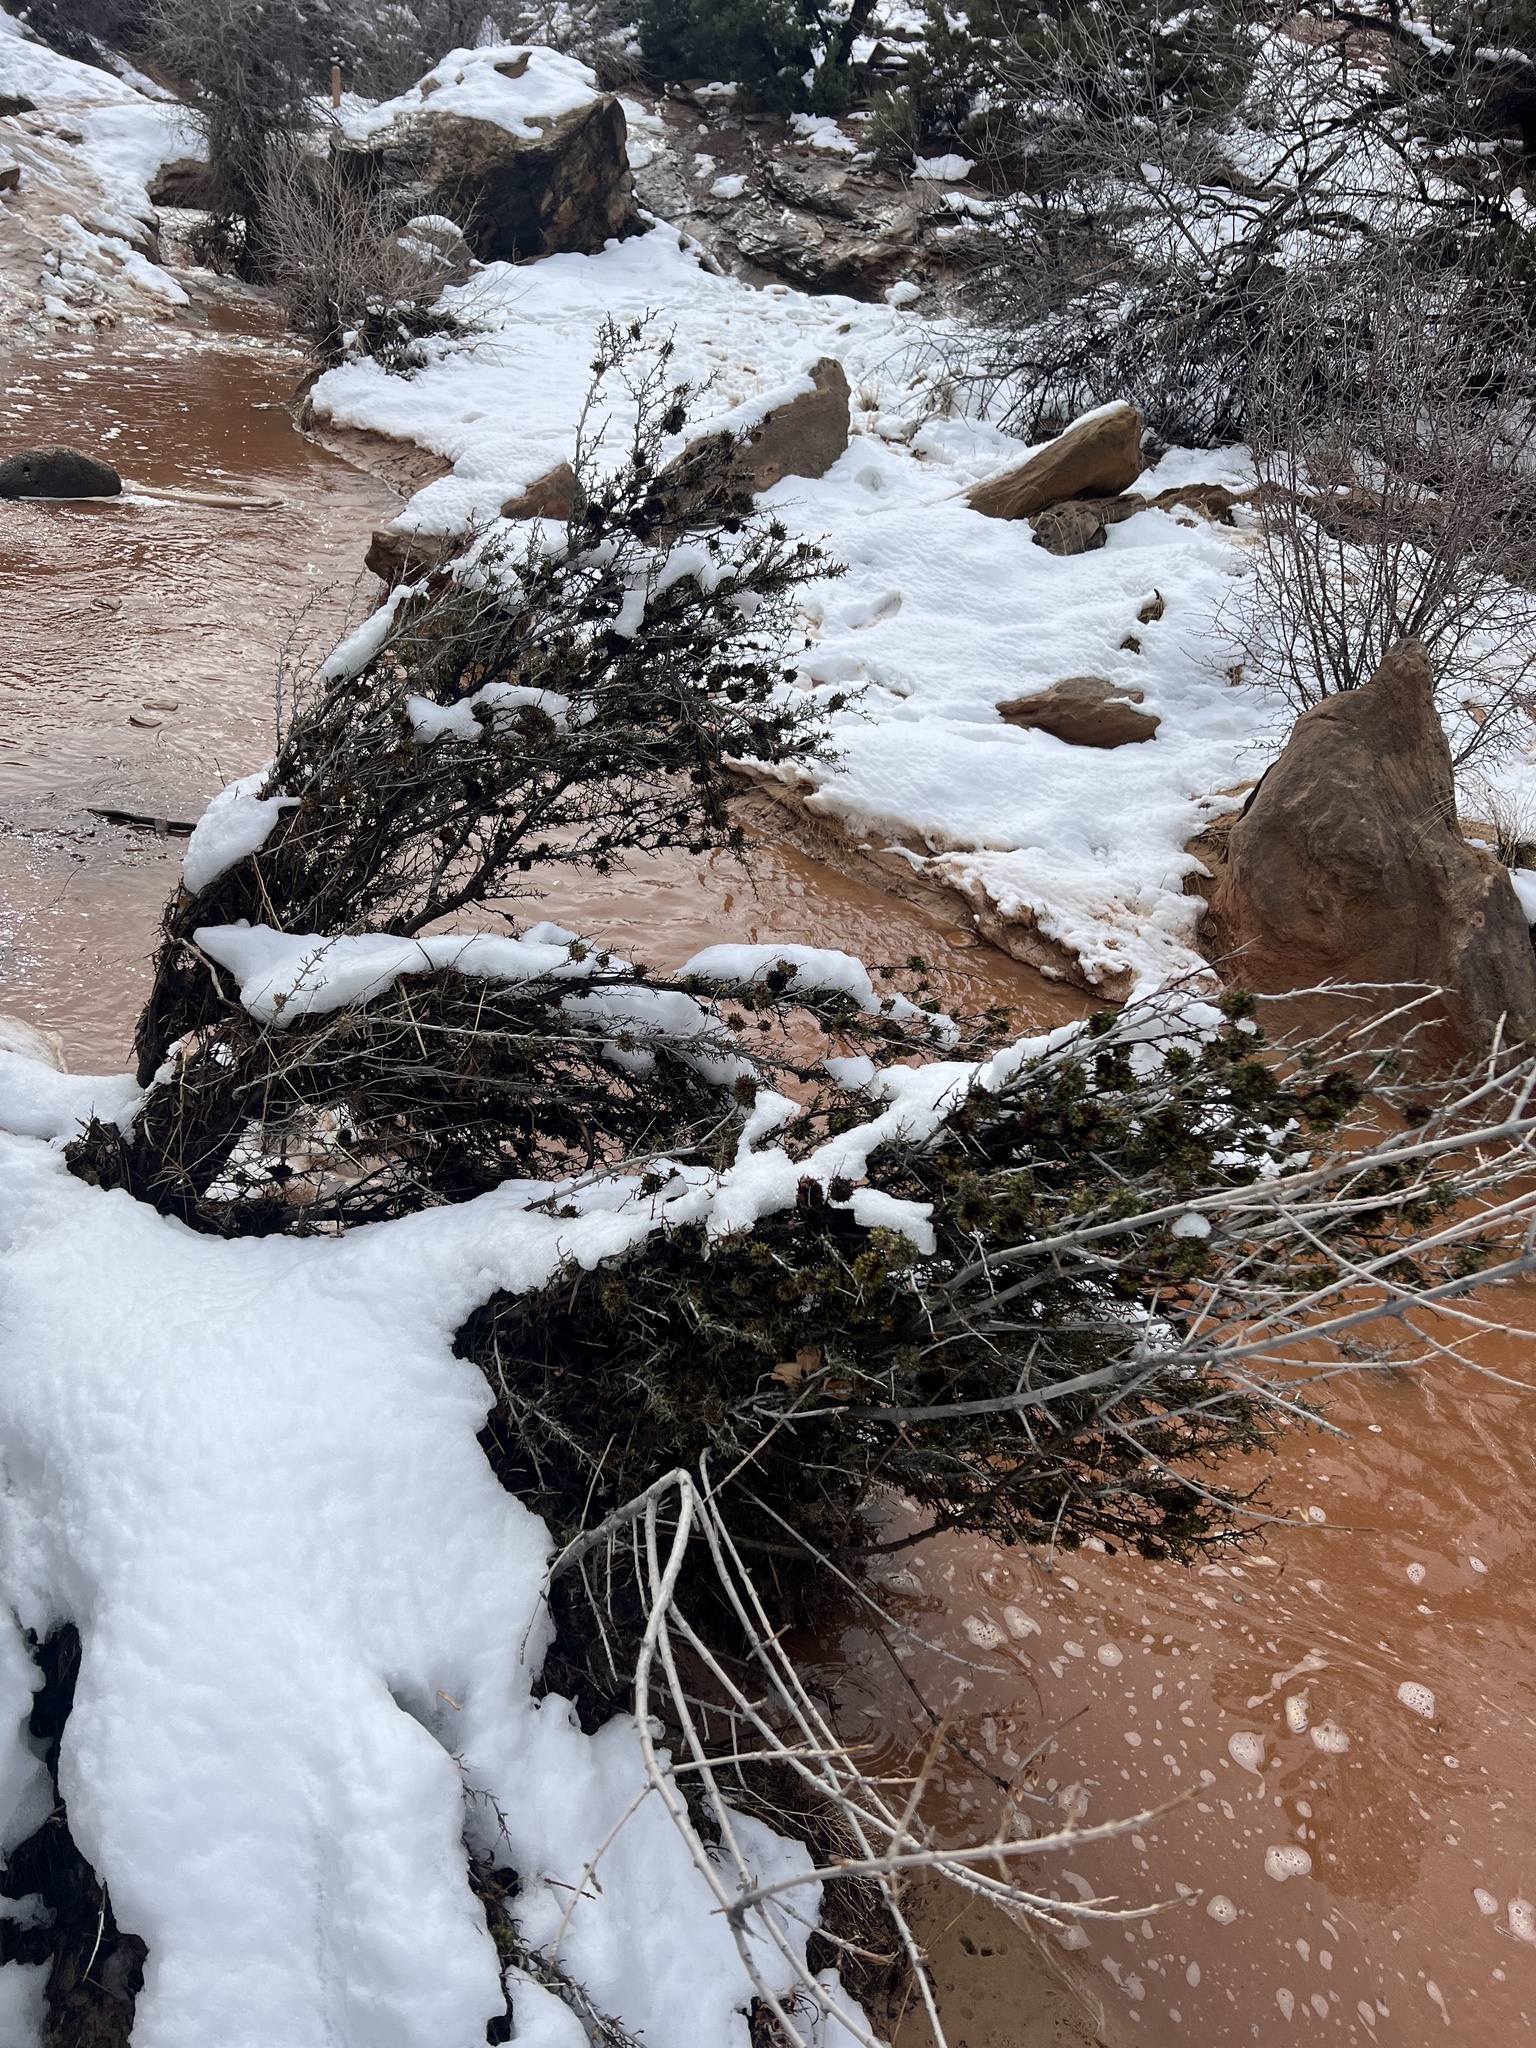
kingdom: Plantae
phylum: Tracheophyta
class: Magnoliopsida
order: Rosales
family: Rosaceae
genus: Cercocarpus
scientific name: Cercocarpus intricatus
